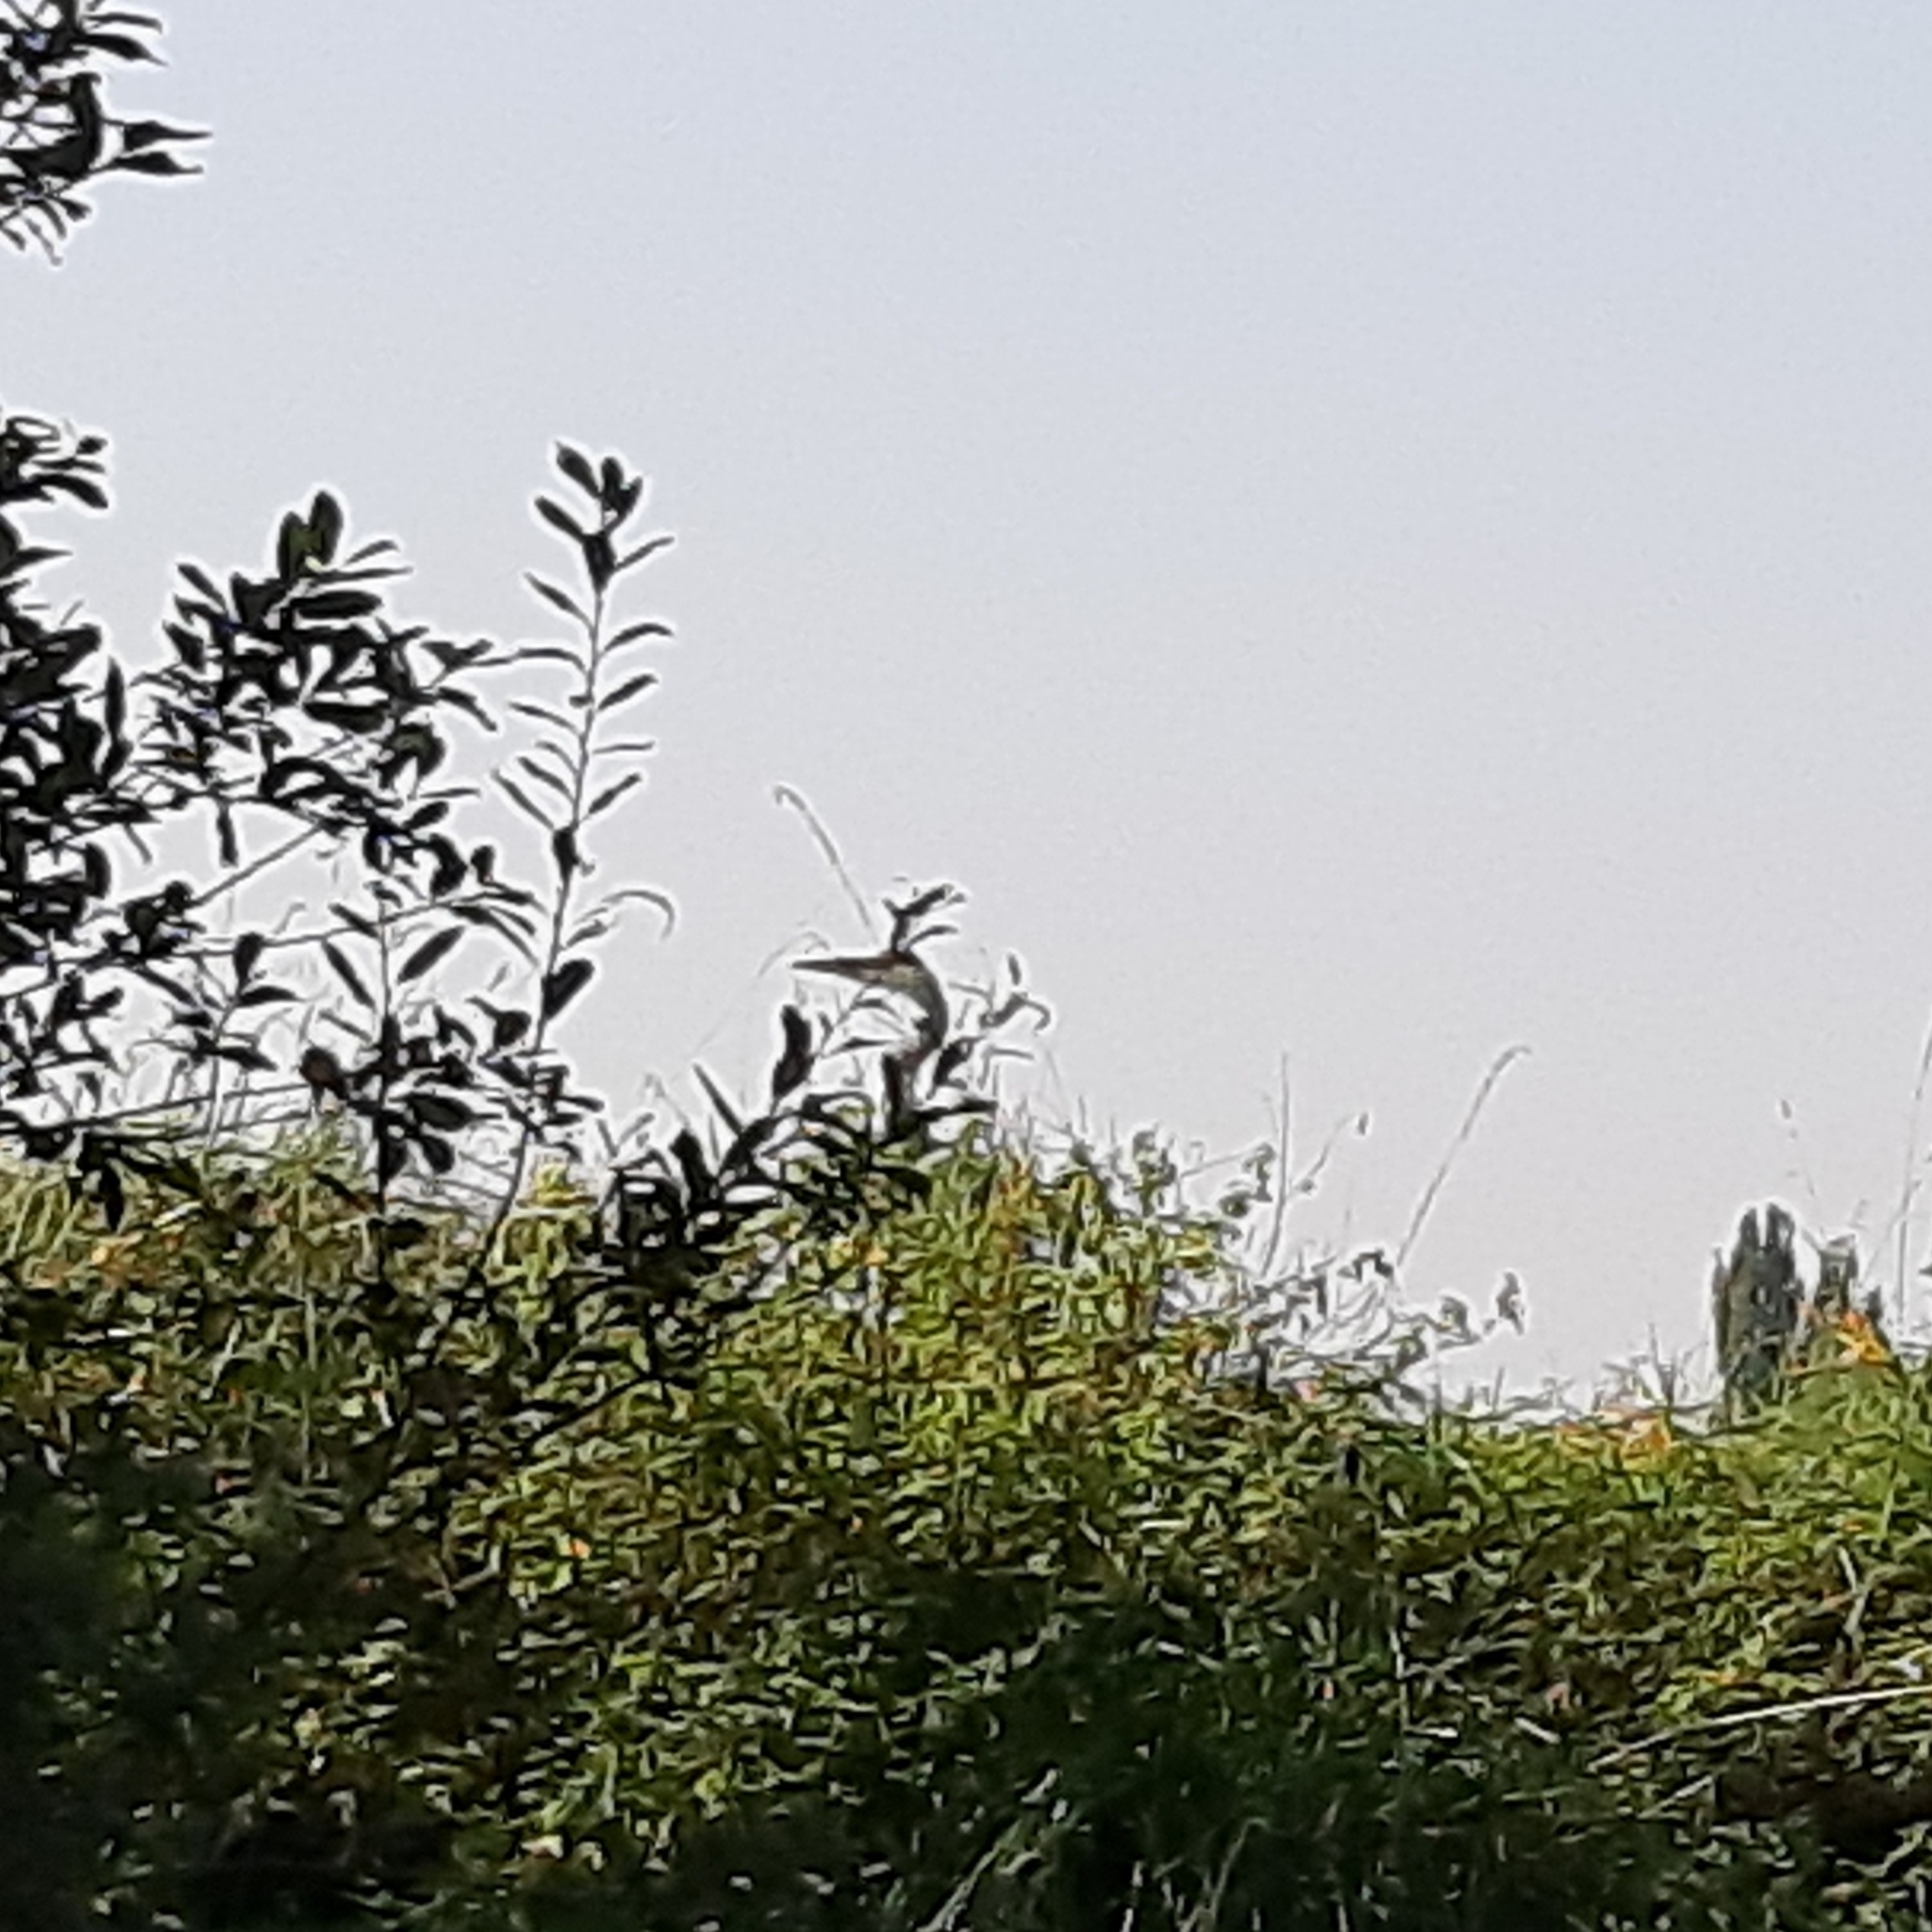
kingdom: Animalia
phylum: Chordata
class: Aves
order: Pelecaniformes
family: Ardeidae
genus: Ardea
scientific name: Ardea cinerea
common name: Grey heron
